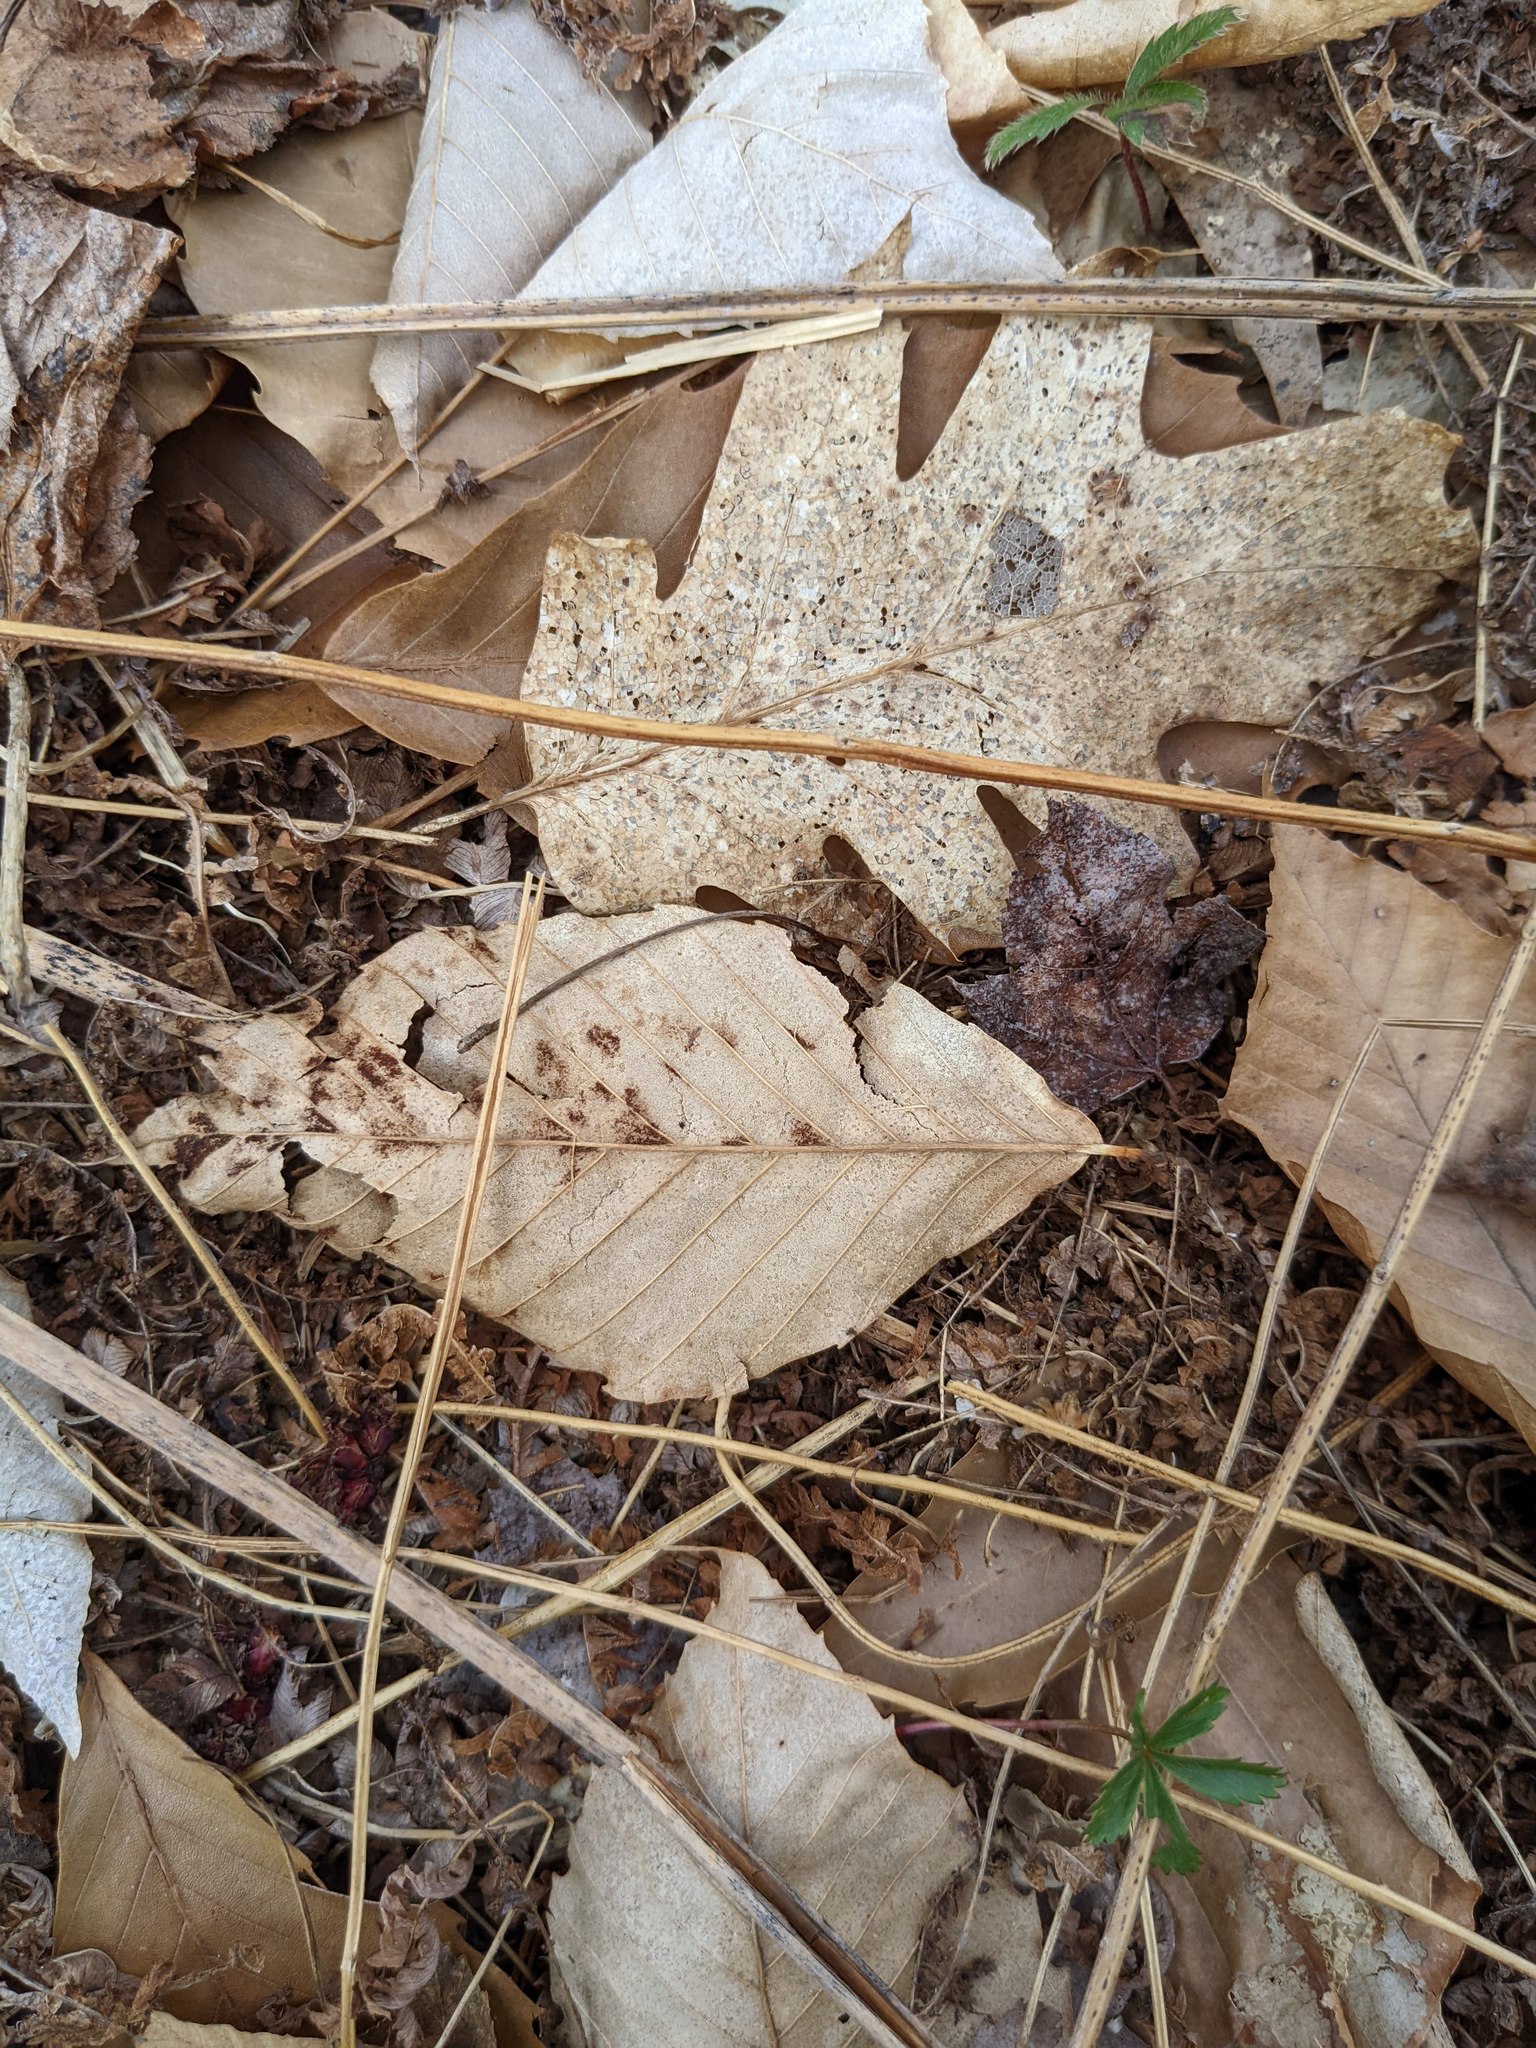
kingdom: Plantae
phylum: Tracheophyta
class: Magnoliopsida
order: Fagales
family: Fagaceae
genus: Fagus
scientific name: Fagus grandifolia
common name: American beech
